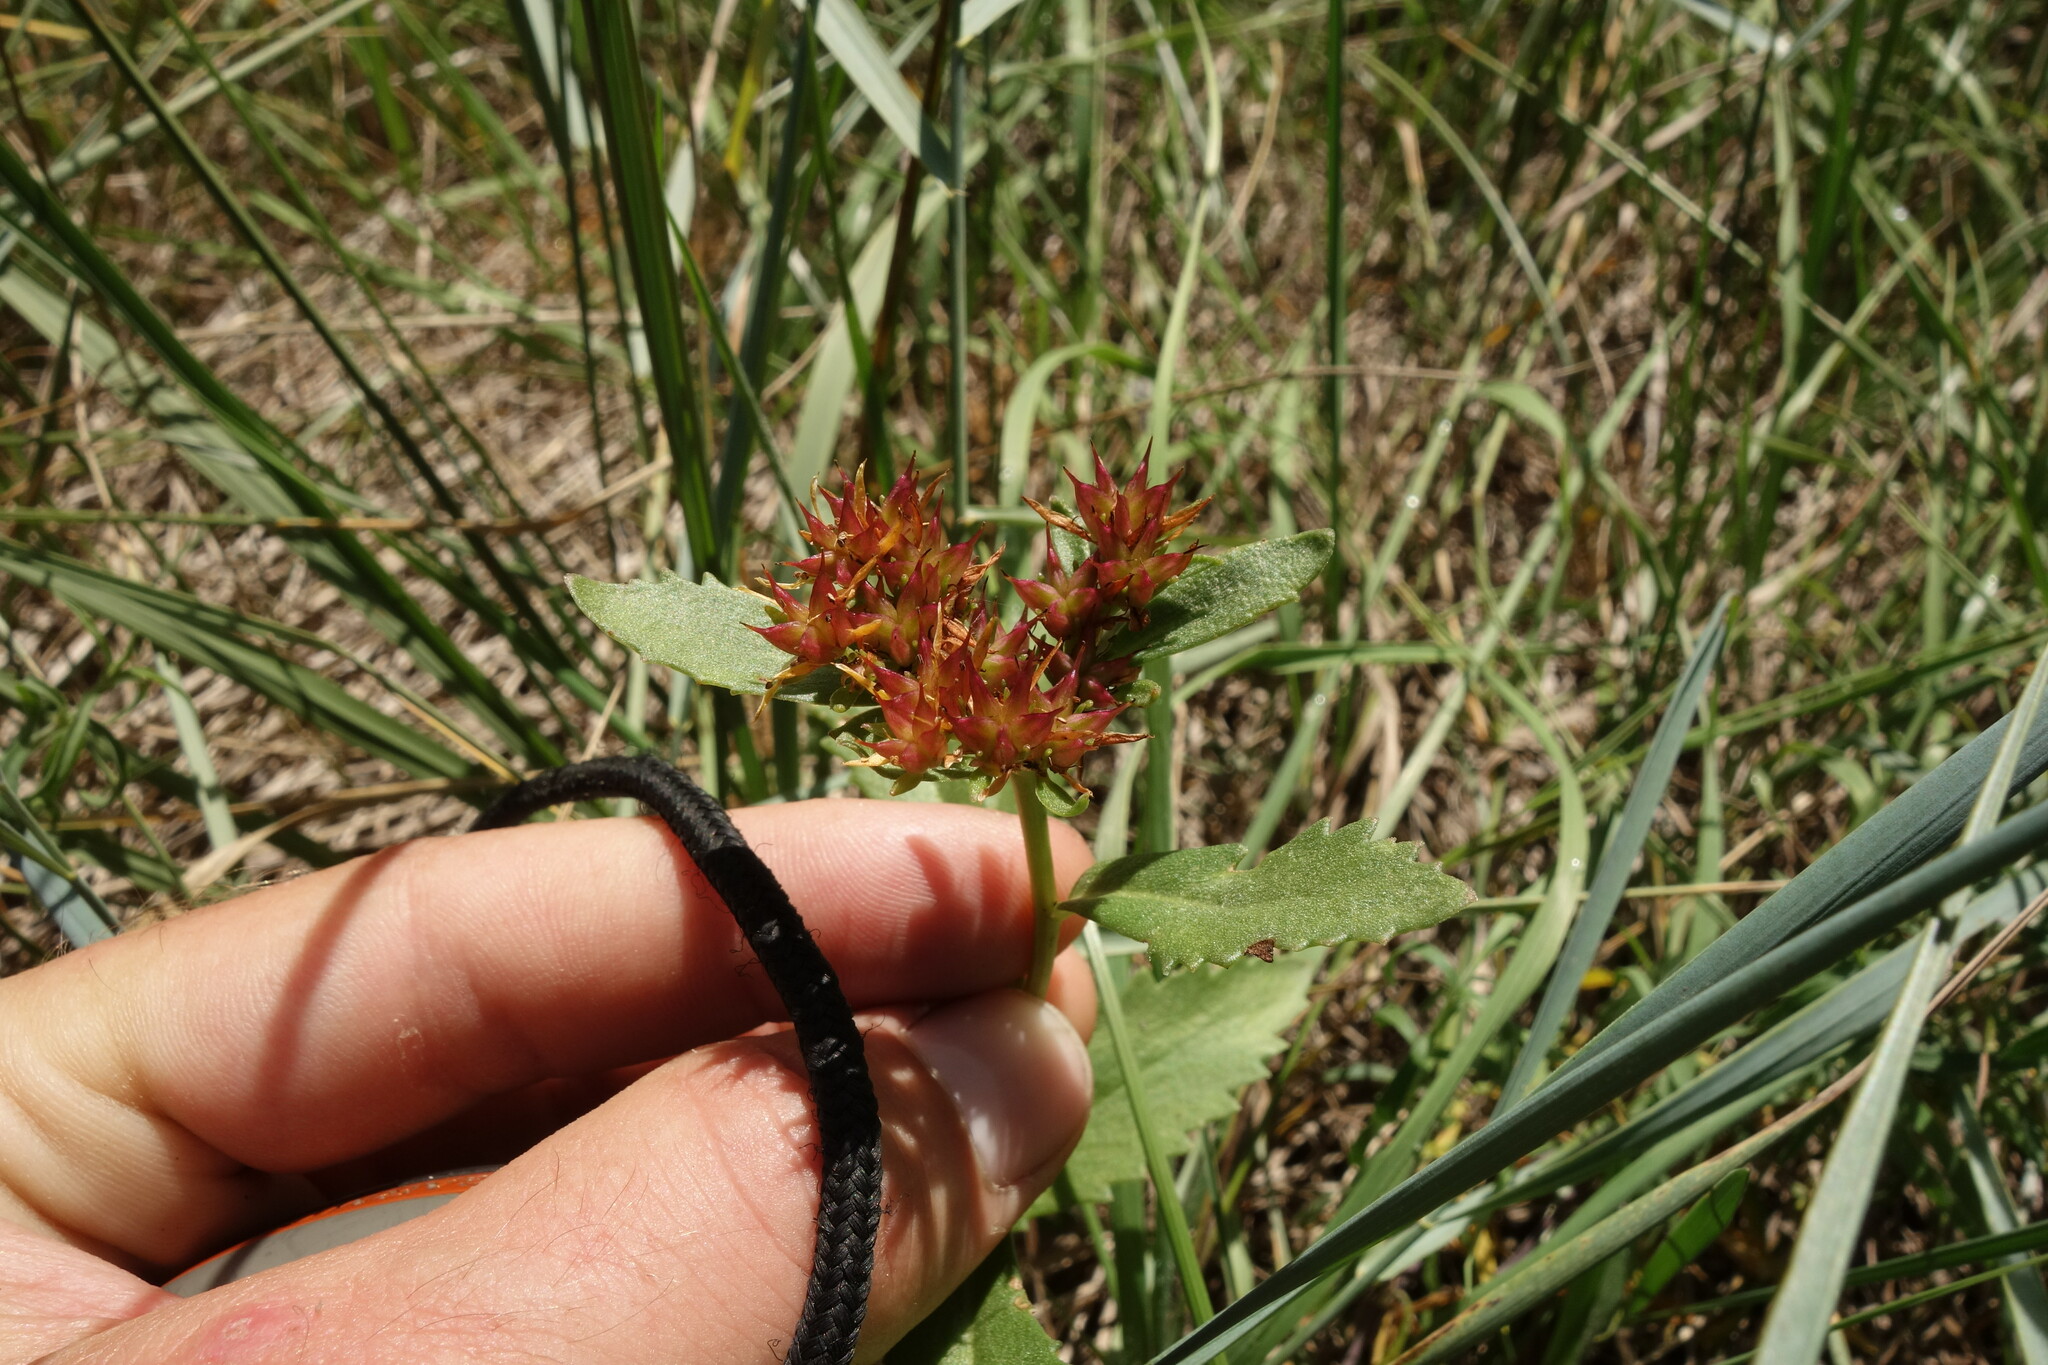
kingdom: Plantae
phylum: Tracheophyta
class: Magnoliopsida
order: Saxifragales
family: Crassulaceae
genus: Phedimus
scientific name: Phedimus aizoon
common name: Orpin aizoon
